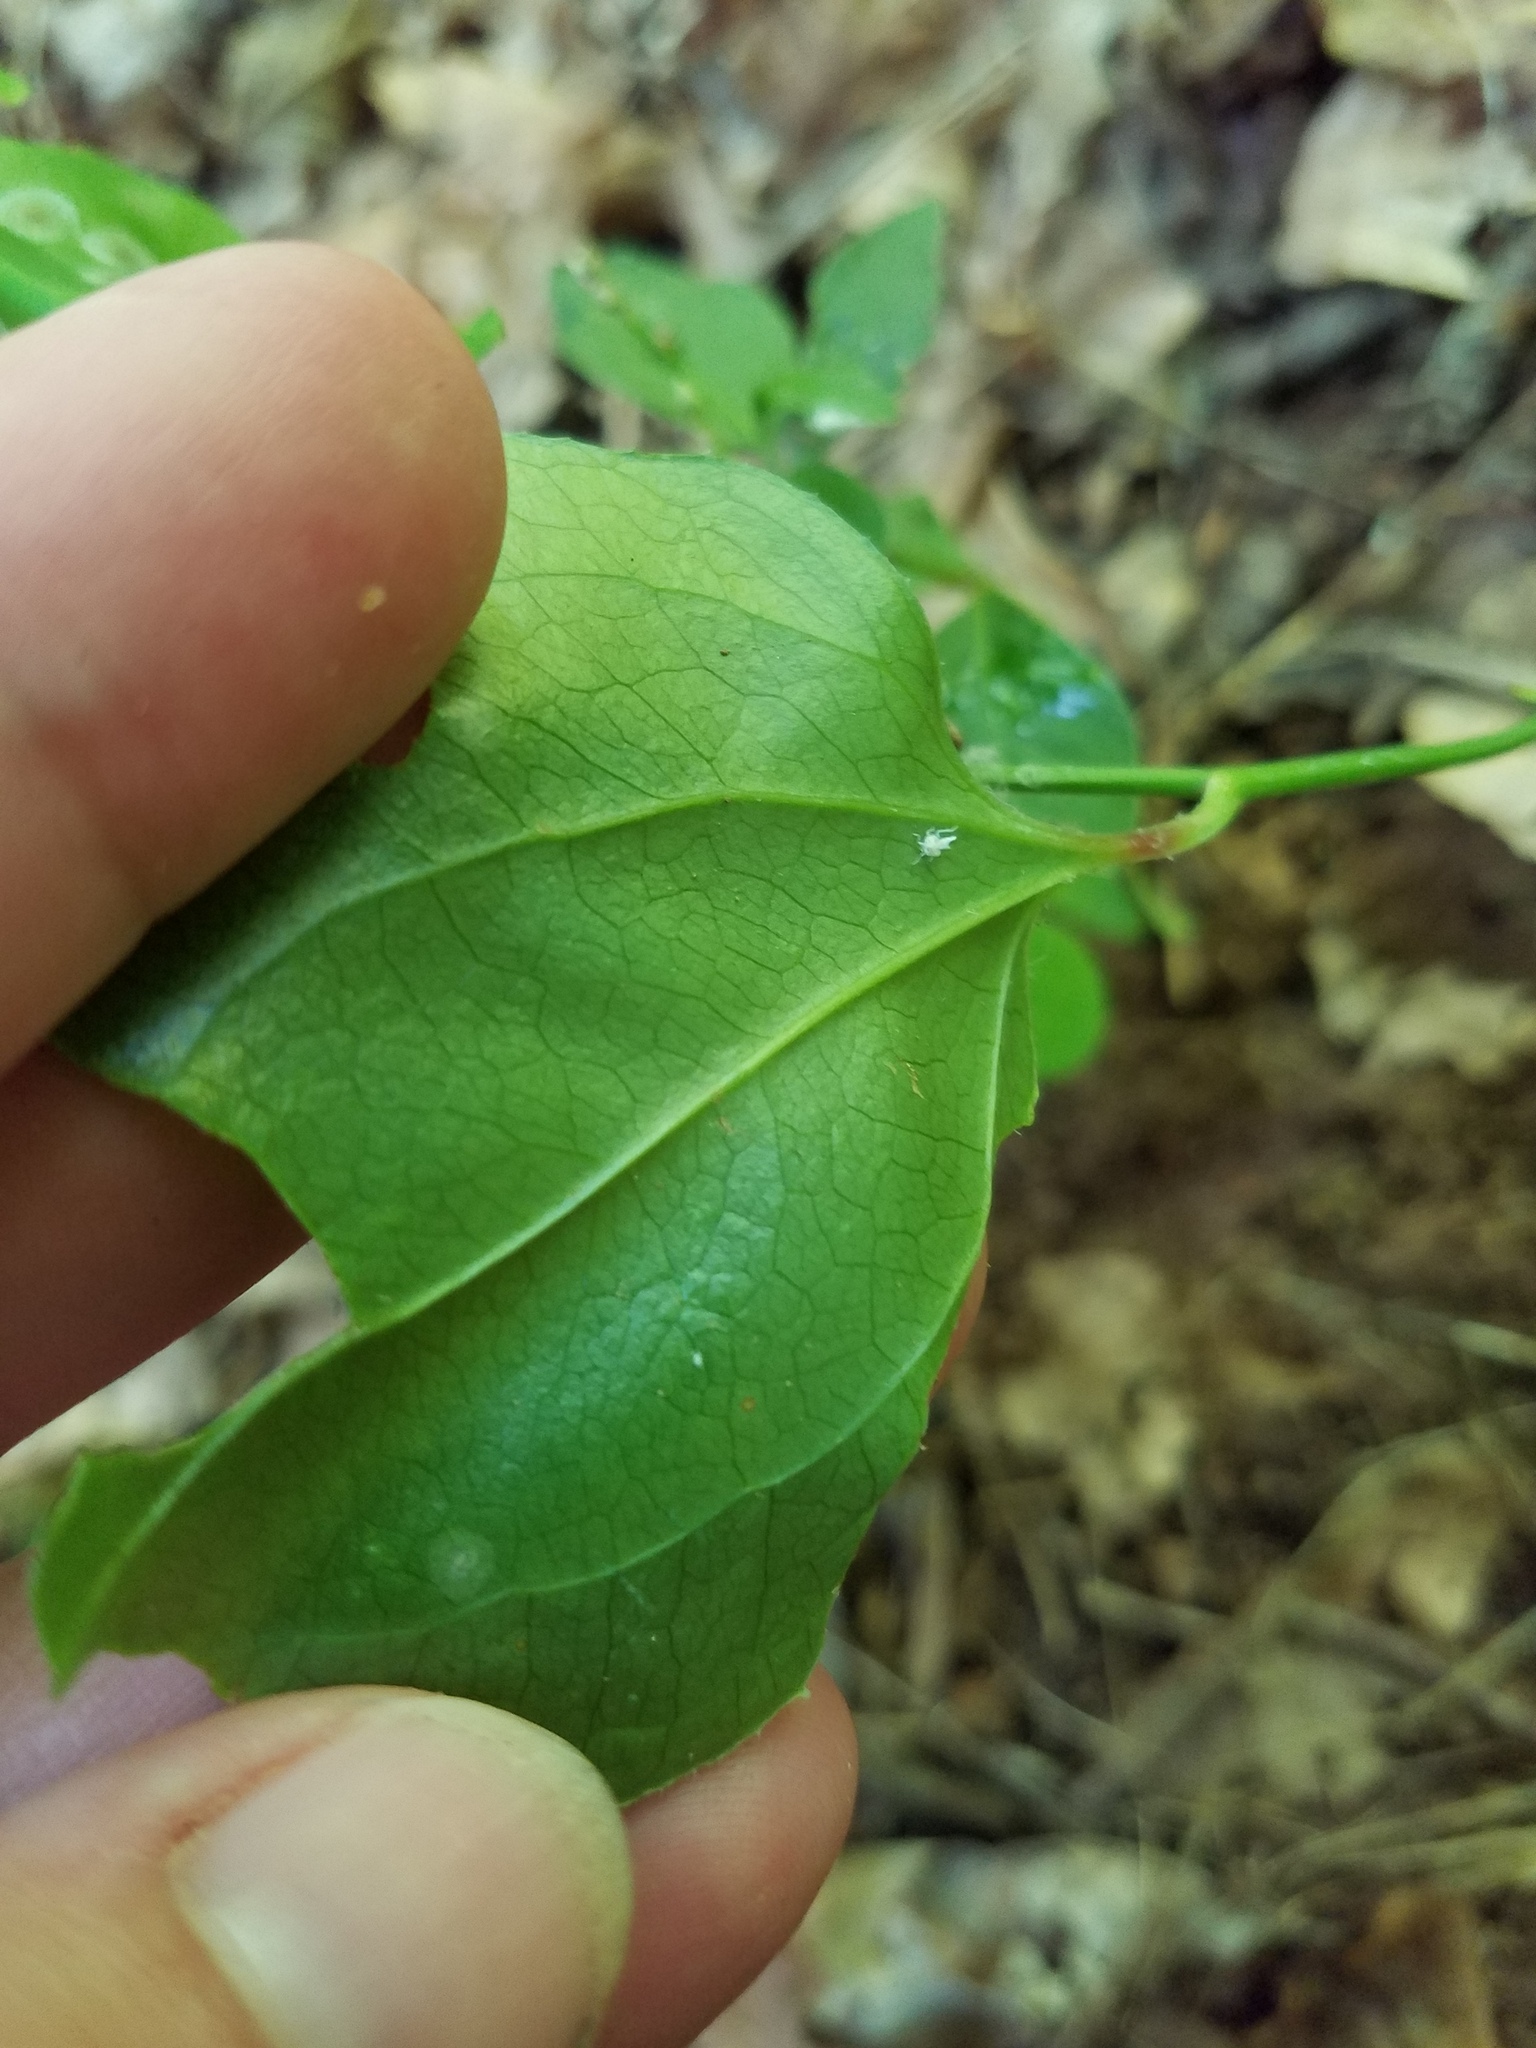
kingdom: Plantae
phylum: Tracheophyta
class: Liliopsida
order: Liliales
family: Smilacaceae
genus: Smilax
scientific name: Smilax rotundifolia
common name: Bullbriar
